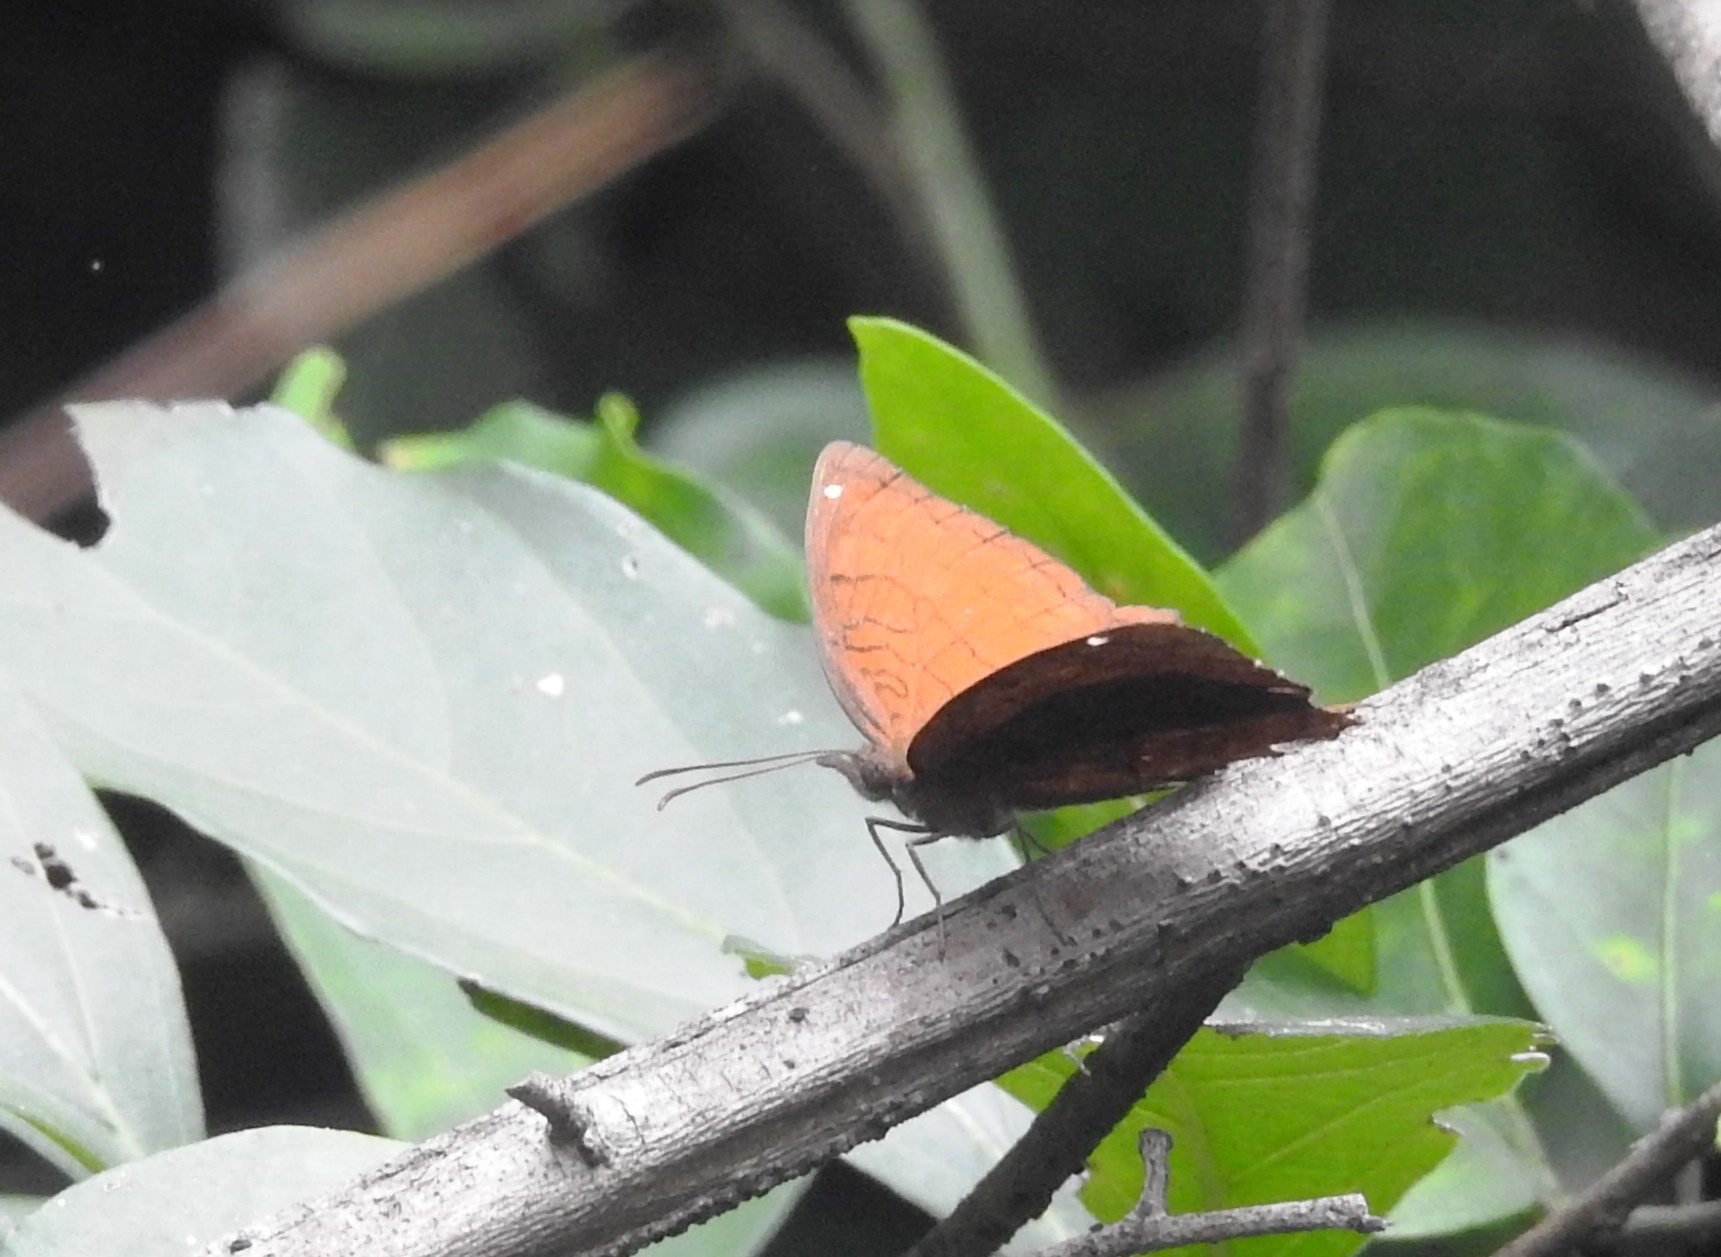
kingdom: Animalia
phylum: Arthropoda
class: Insecta
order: Lepidoptera
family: Nymphalidae
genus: Ariadne
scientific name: Ariadne ariadne
